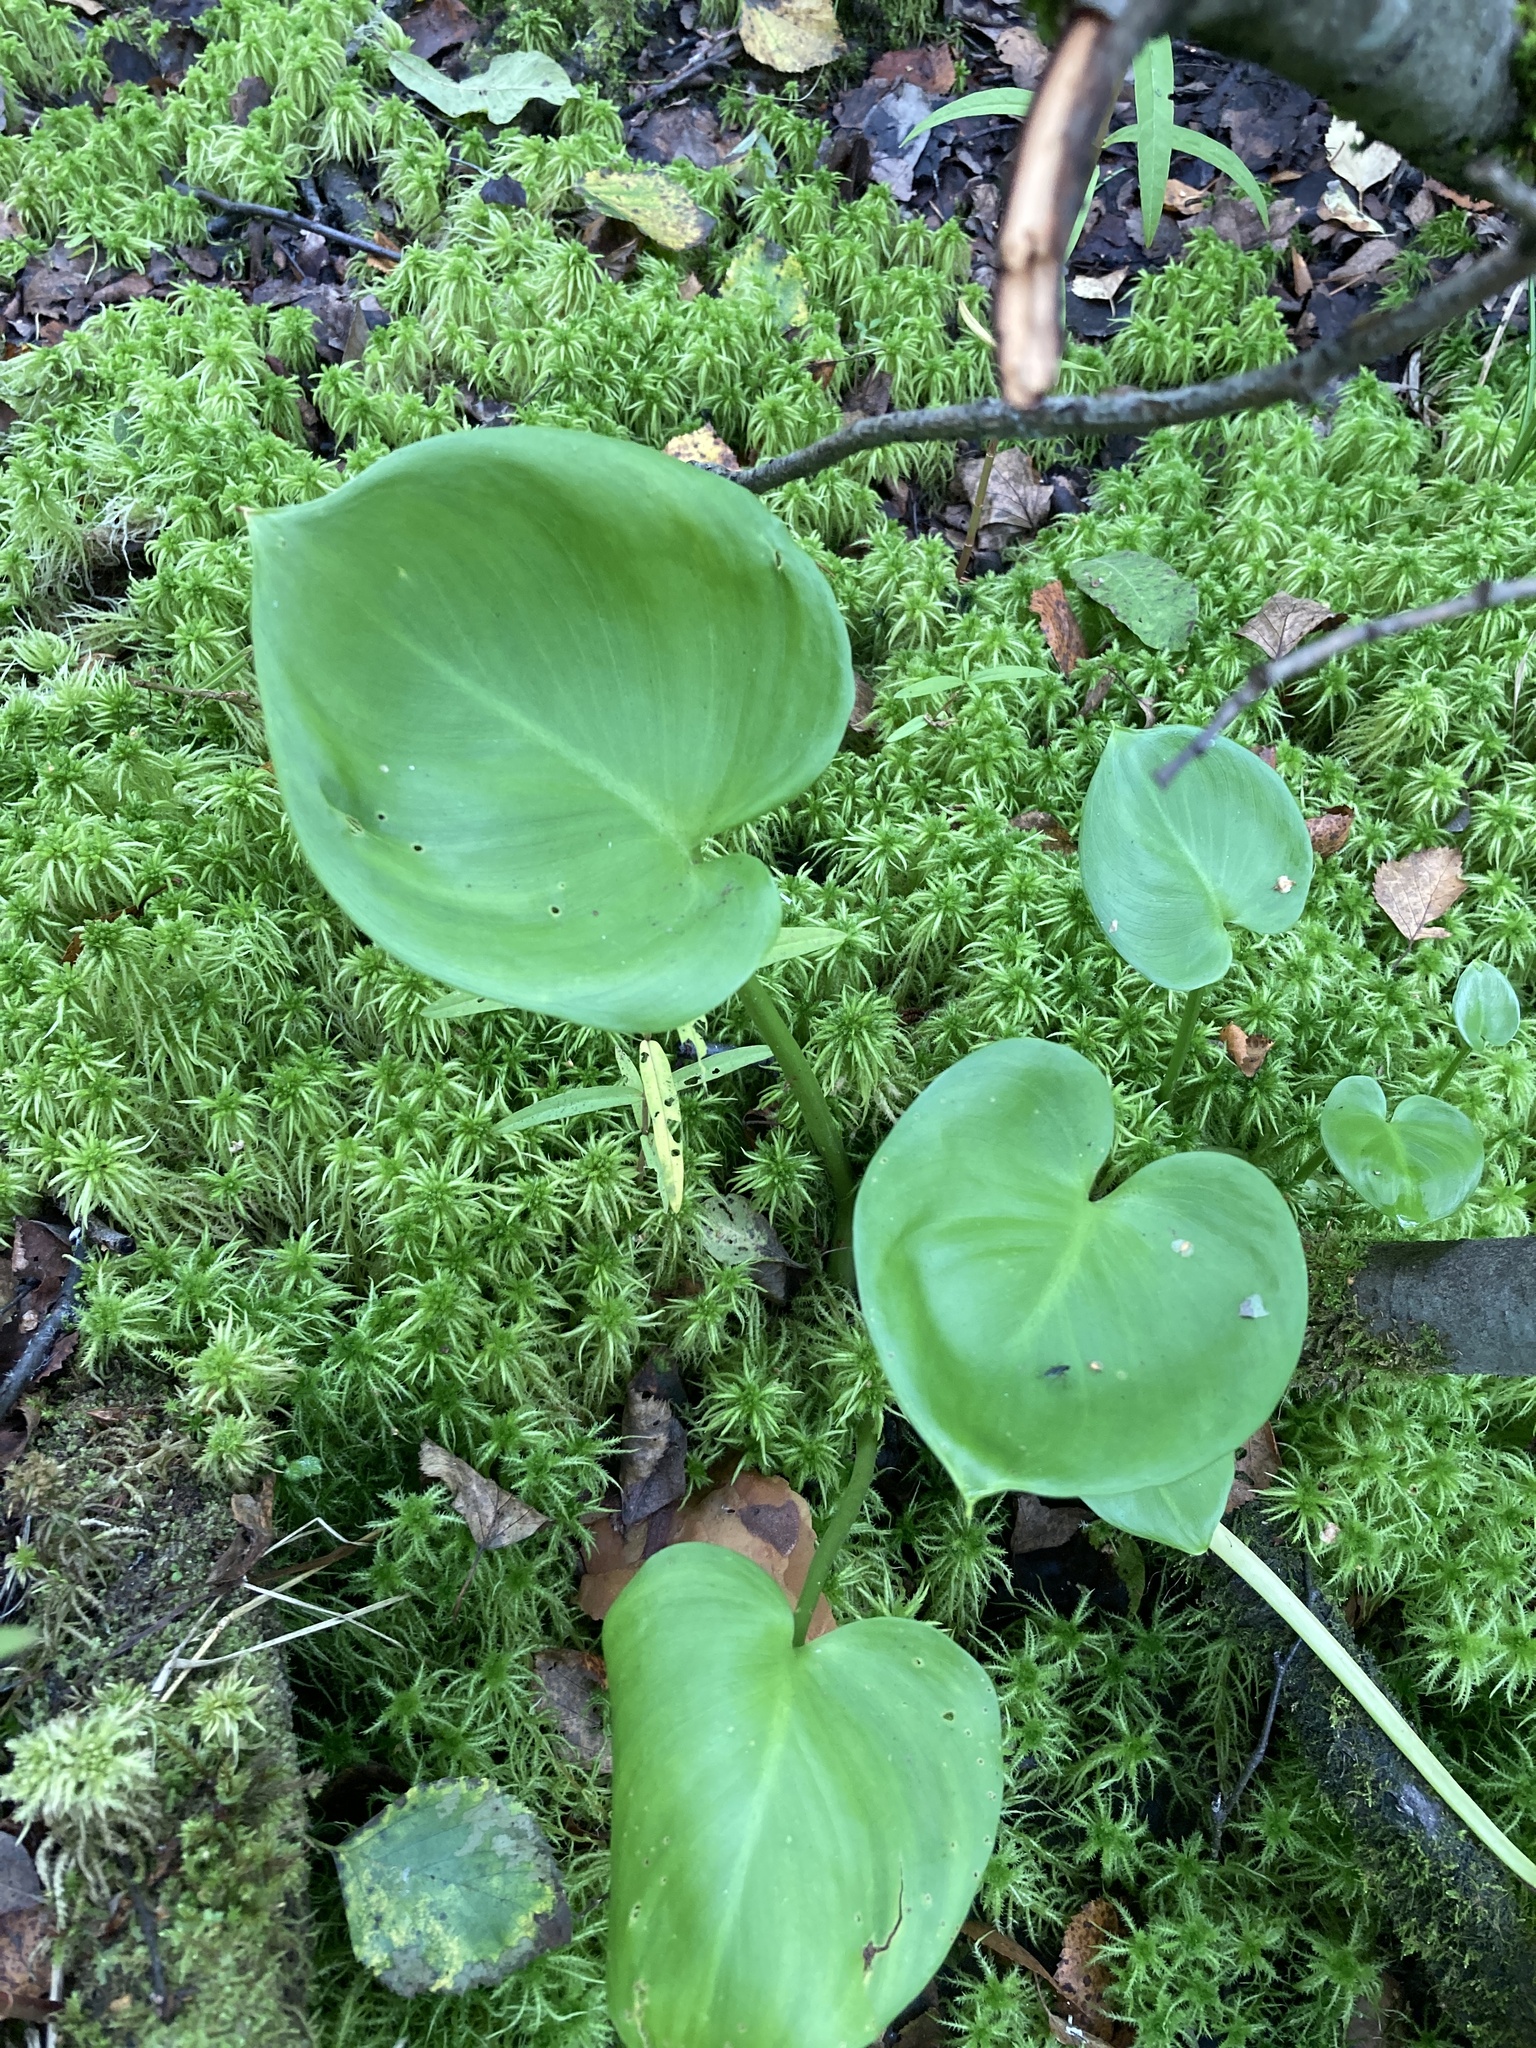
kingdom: Plantae
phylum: Tracheophyta
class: Liliopsida
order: Alismatales
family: Araceae
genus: Calla
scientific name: Calla palustris
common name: Bog arum
